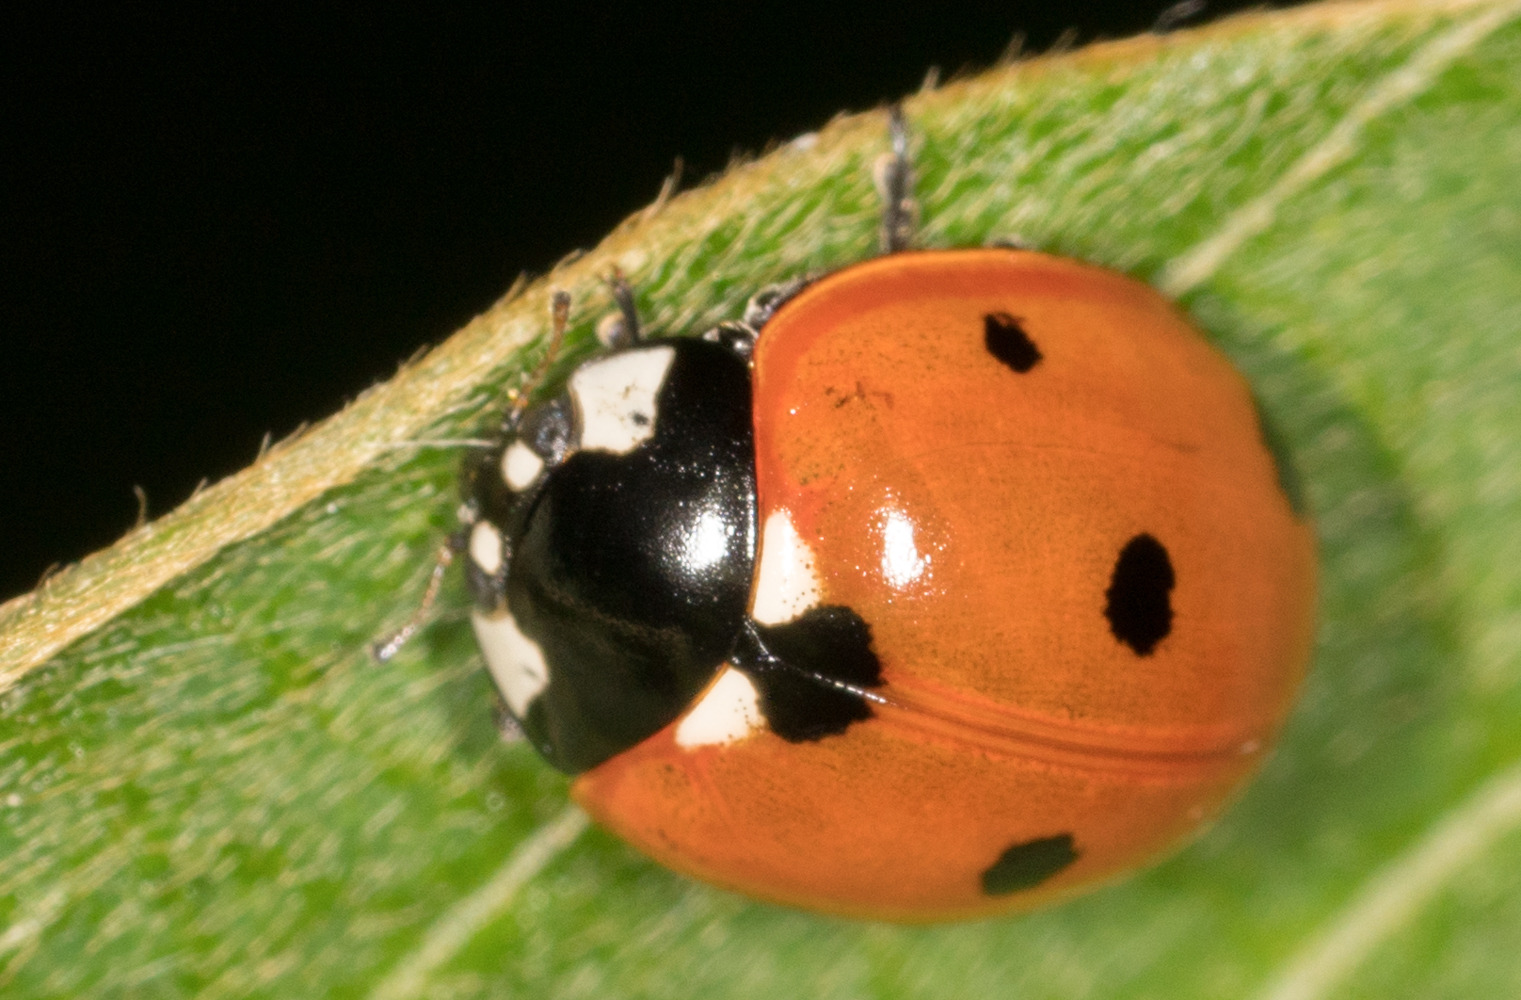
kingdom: Animalia
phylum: Arthropoda
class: Insecta
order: Coleoptera
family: Coccinellidae
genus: Coccinella
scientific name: Coccinella septempunctata
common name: Sevenspotted lady beetle
